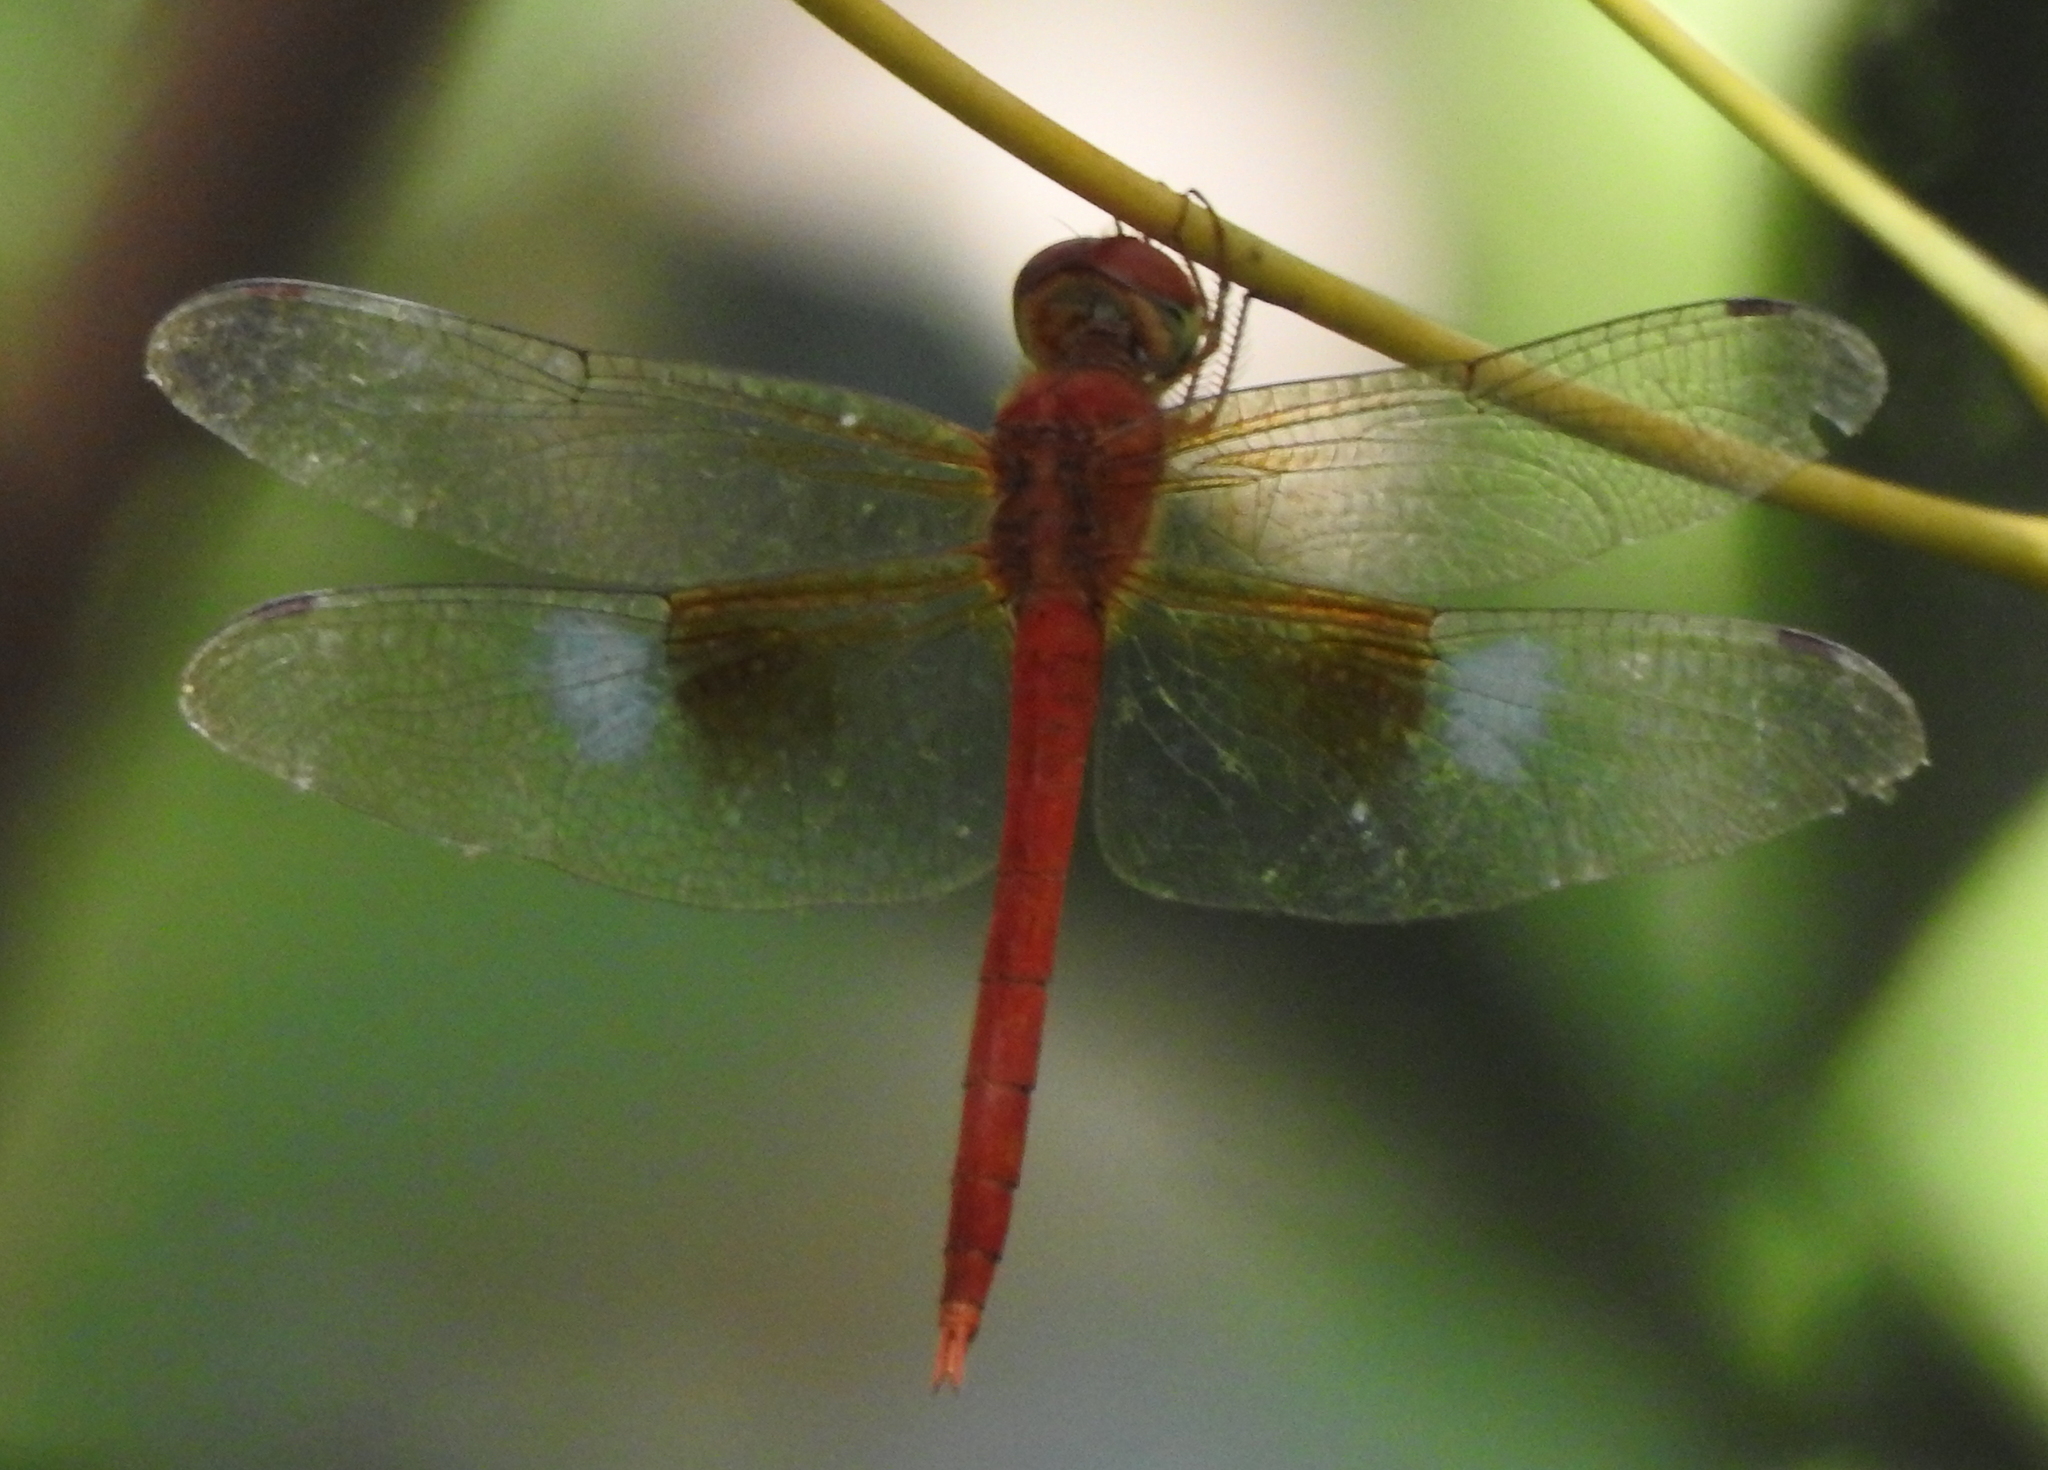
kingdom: Animalia
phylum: Arthropoda
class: Insecta
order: Odonata
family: Libellulidae
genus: Tholymis
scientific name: Tholymis tillarga
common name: Coral-tailed cloud wing
